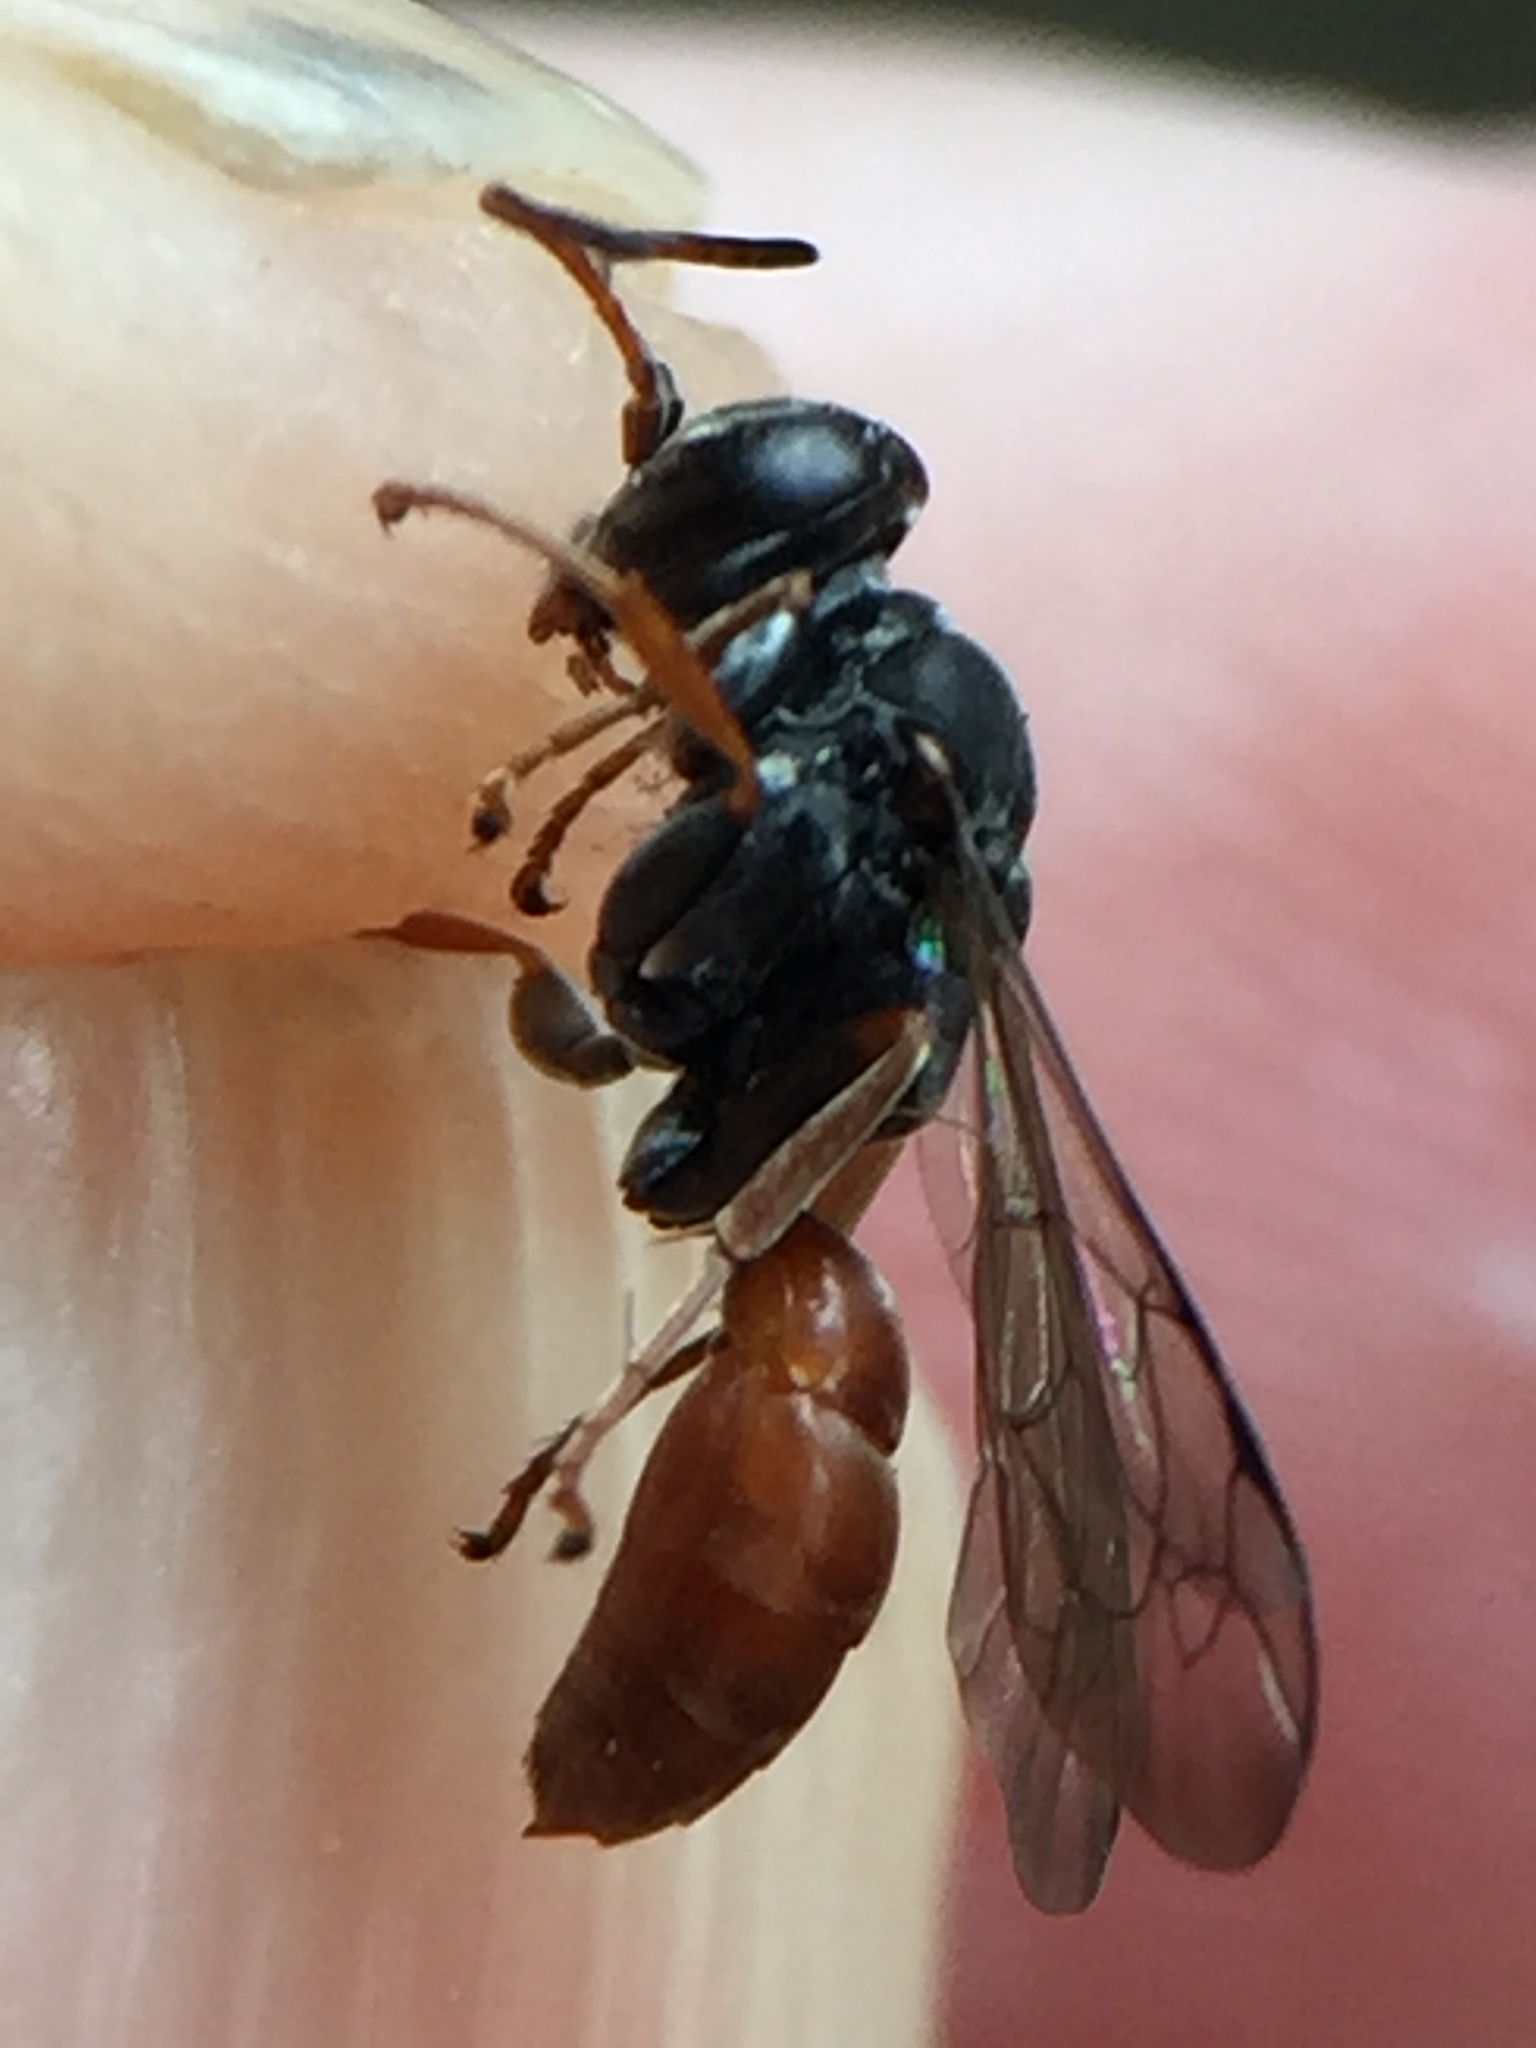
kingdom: Animalia
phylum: Arthropoda
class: Insecta
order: Hymenoptera
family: Crabronidae
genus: Pison
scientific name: Pison peletieri
